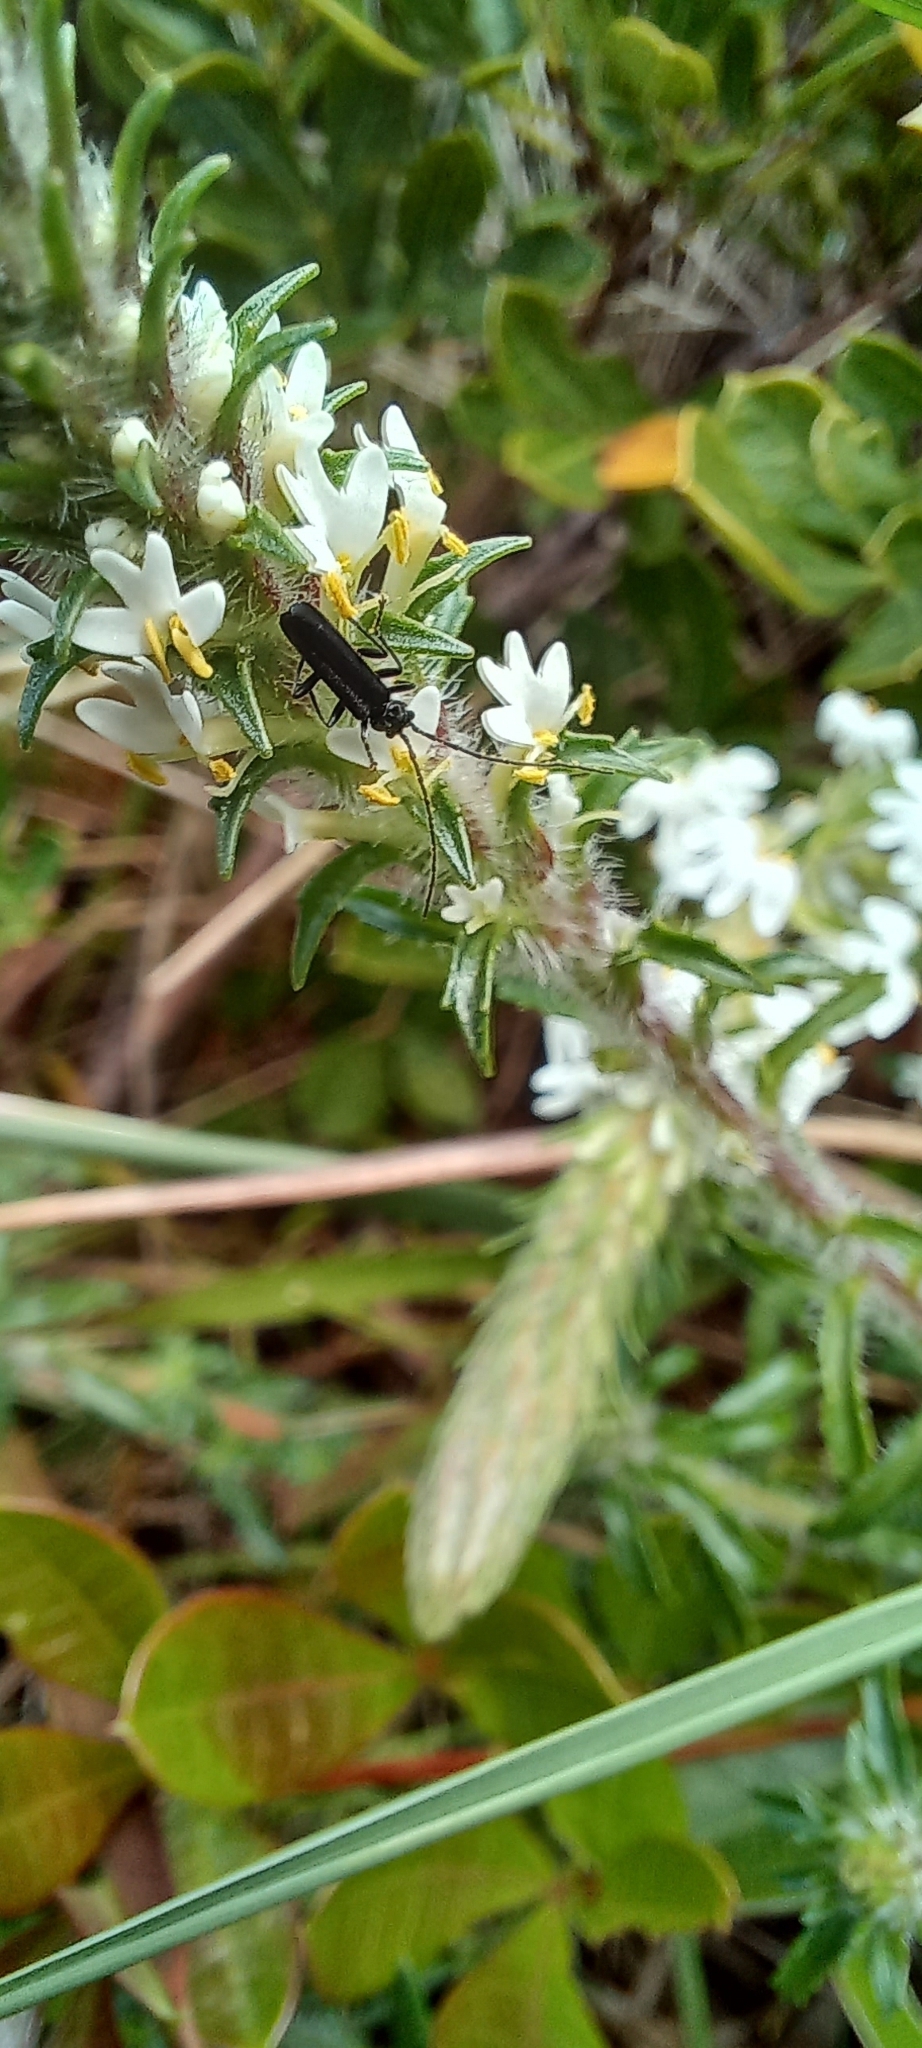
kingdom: Plantae
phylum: Tracheophyta
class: Magnoliopsida
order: Lamiales
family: Scrophulariaceae
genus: Dischisma
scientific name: Dischisma ciliatum
